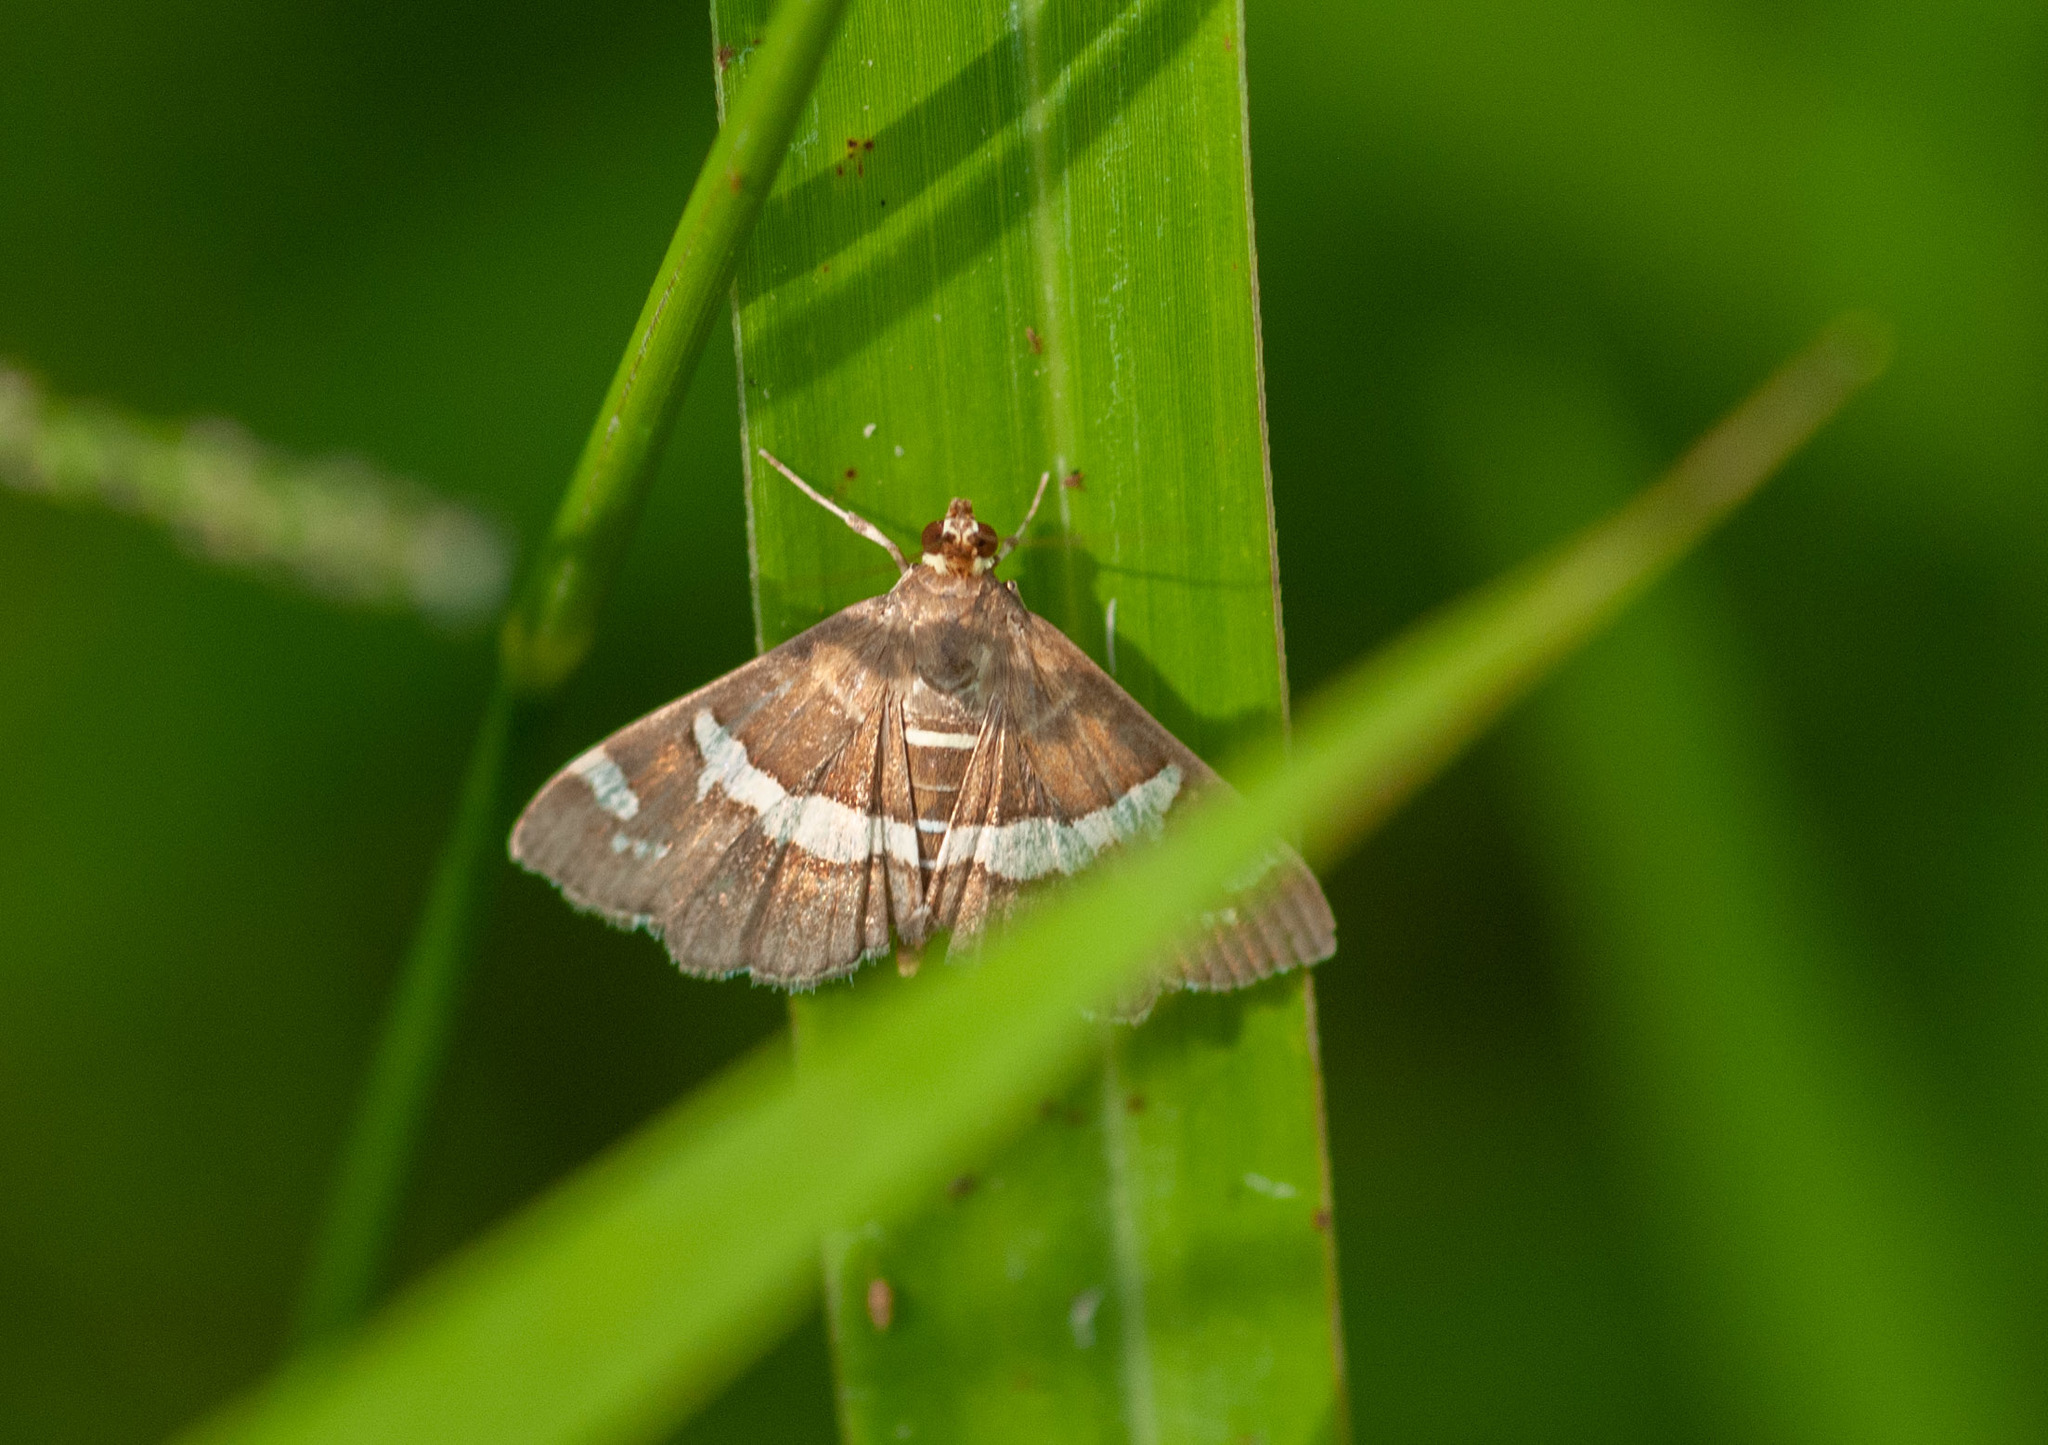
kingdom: Animalia
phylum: Arthropoda
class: Insecta
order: Lepidoptera
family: Crambidae
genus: Spoladea
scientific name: Spoladea recurvalis
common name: Beet webworm moth
